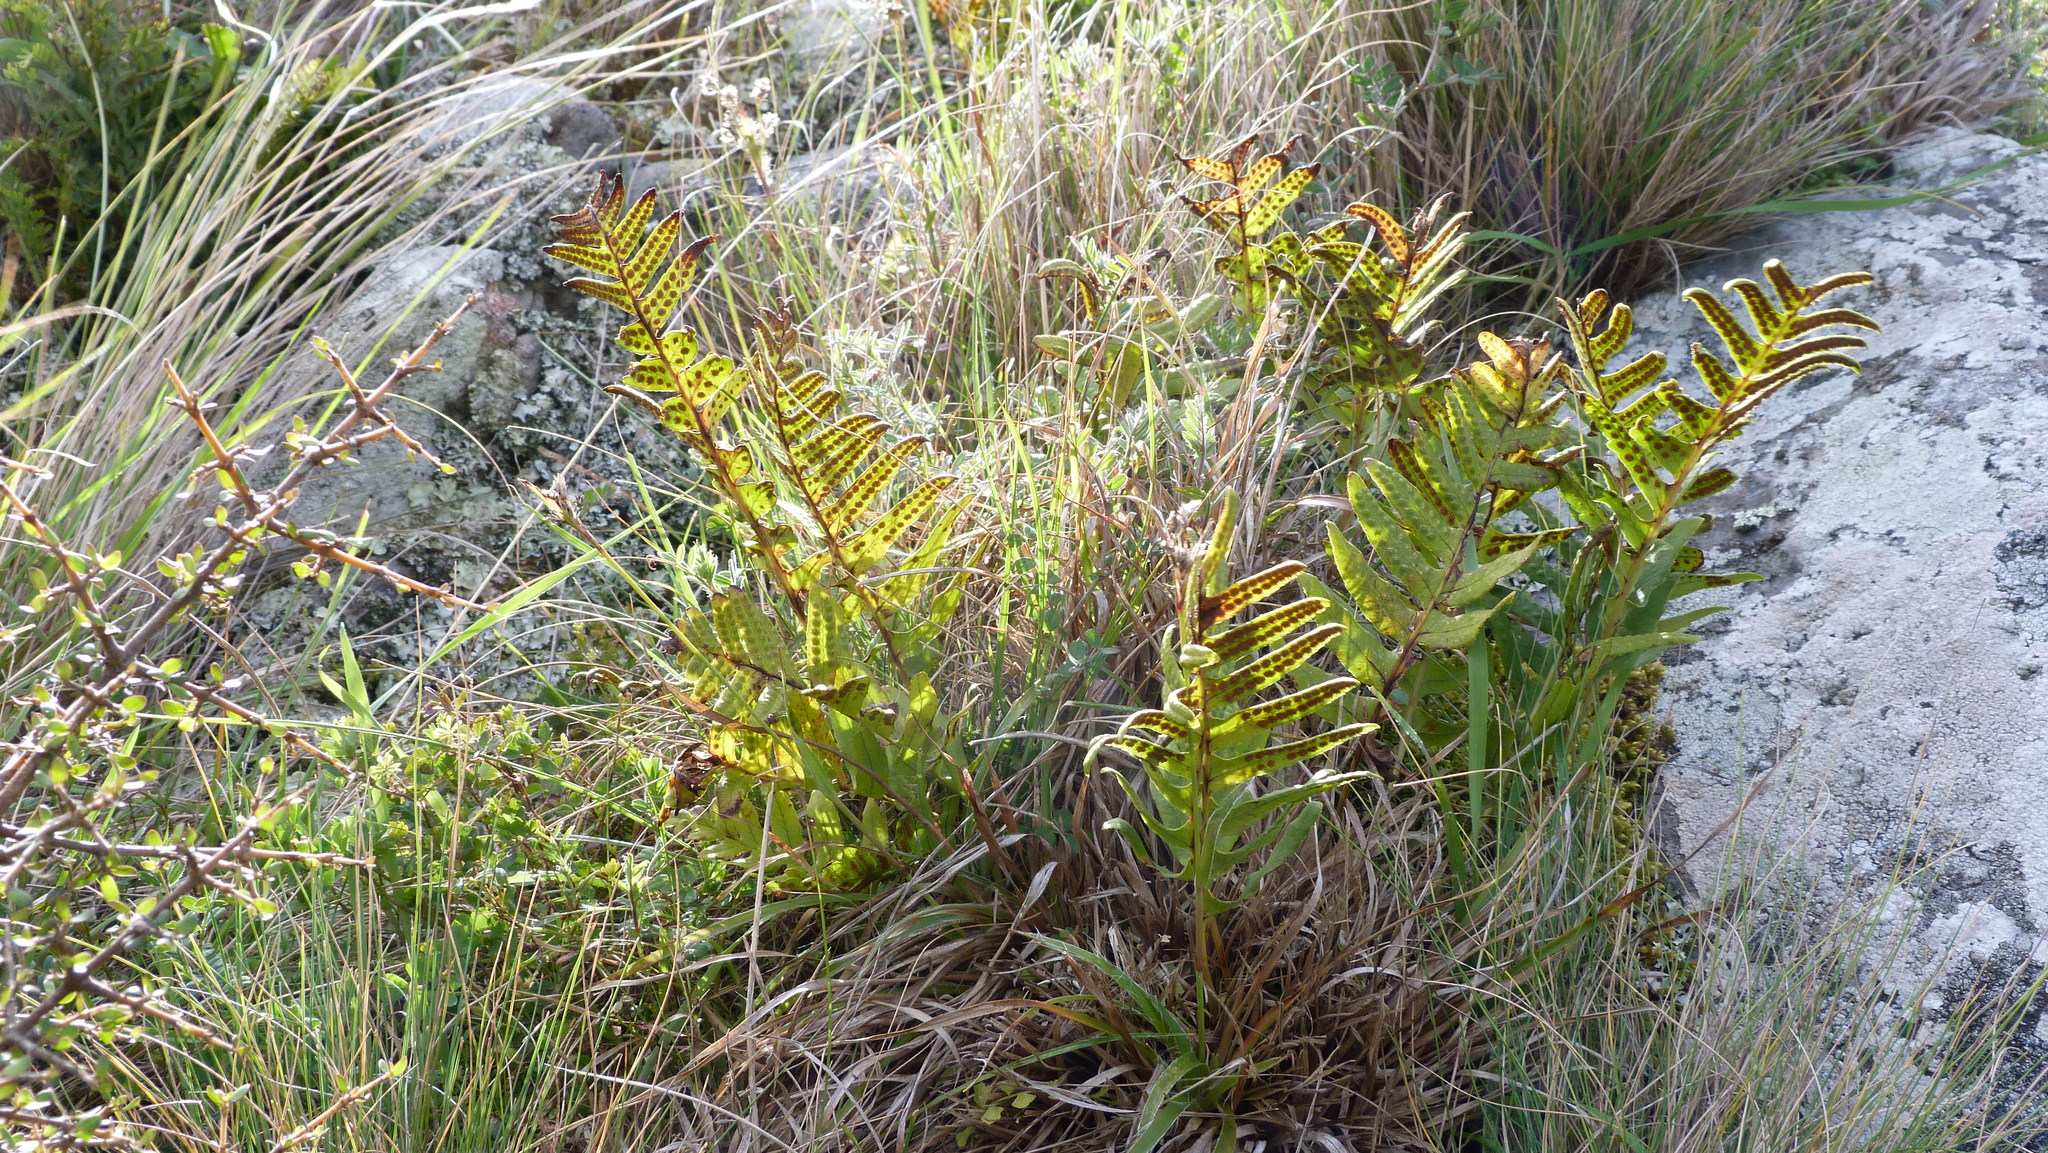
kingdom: Plantae
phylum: Tracheophyta
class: Polypodiopsida
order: Polypodiales
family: Polypodiaceae
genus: Polypodium
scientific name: Polypodium vulgare
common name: Common polypody
